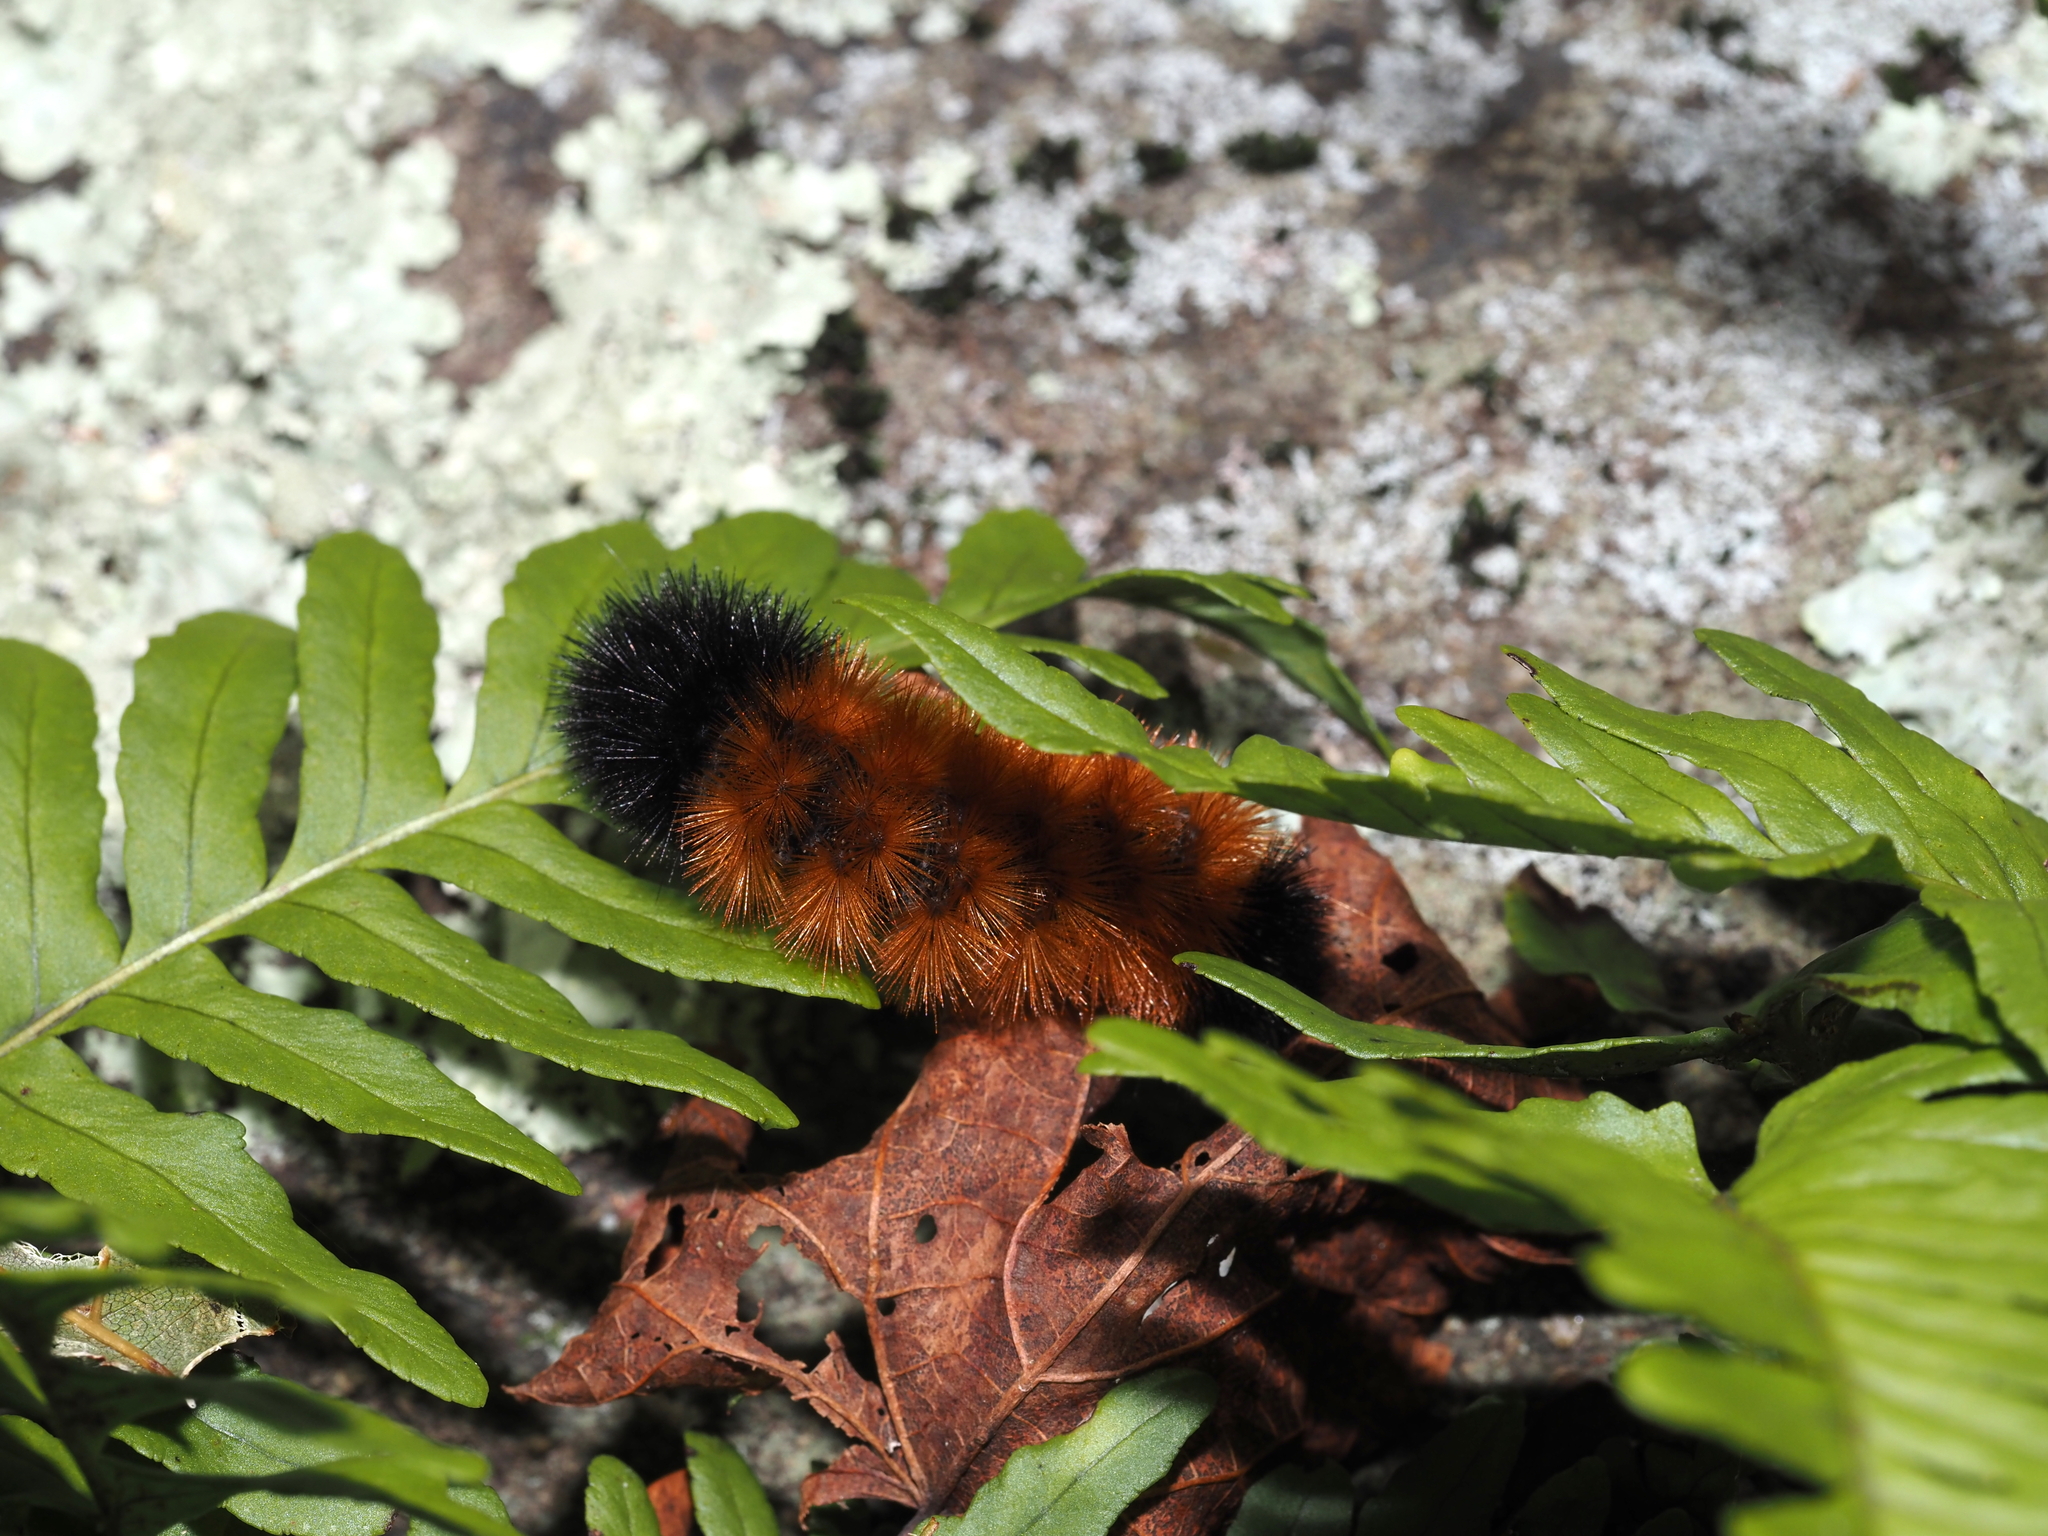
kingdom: Animalia
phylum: Arthropoda
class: Insecta
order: Lepidoptera
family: Erebidae
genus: Pyrrharctia
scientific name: Pyrrharctia isabella
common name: Isabella tiger moth
